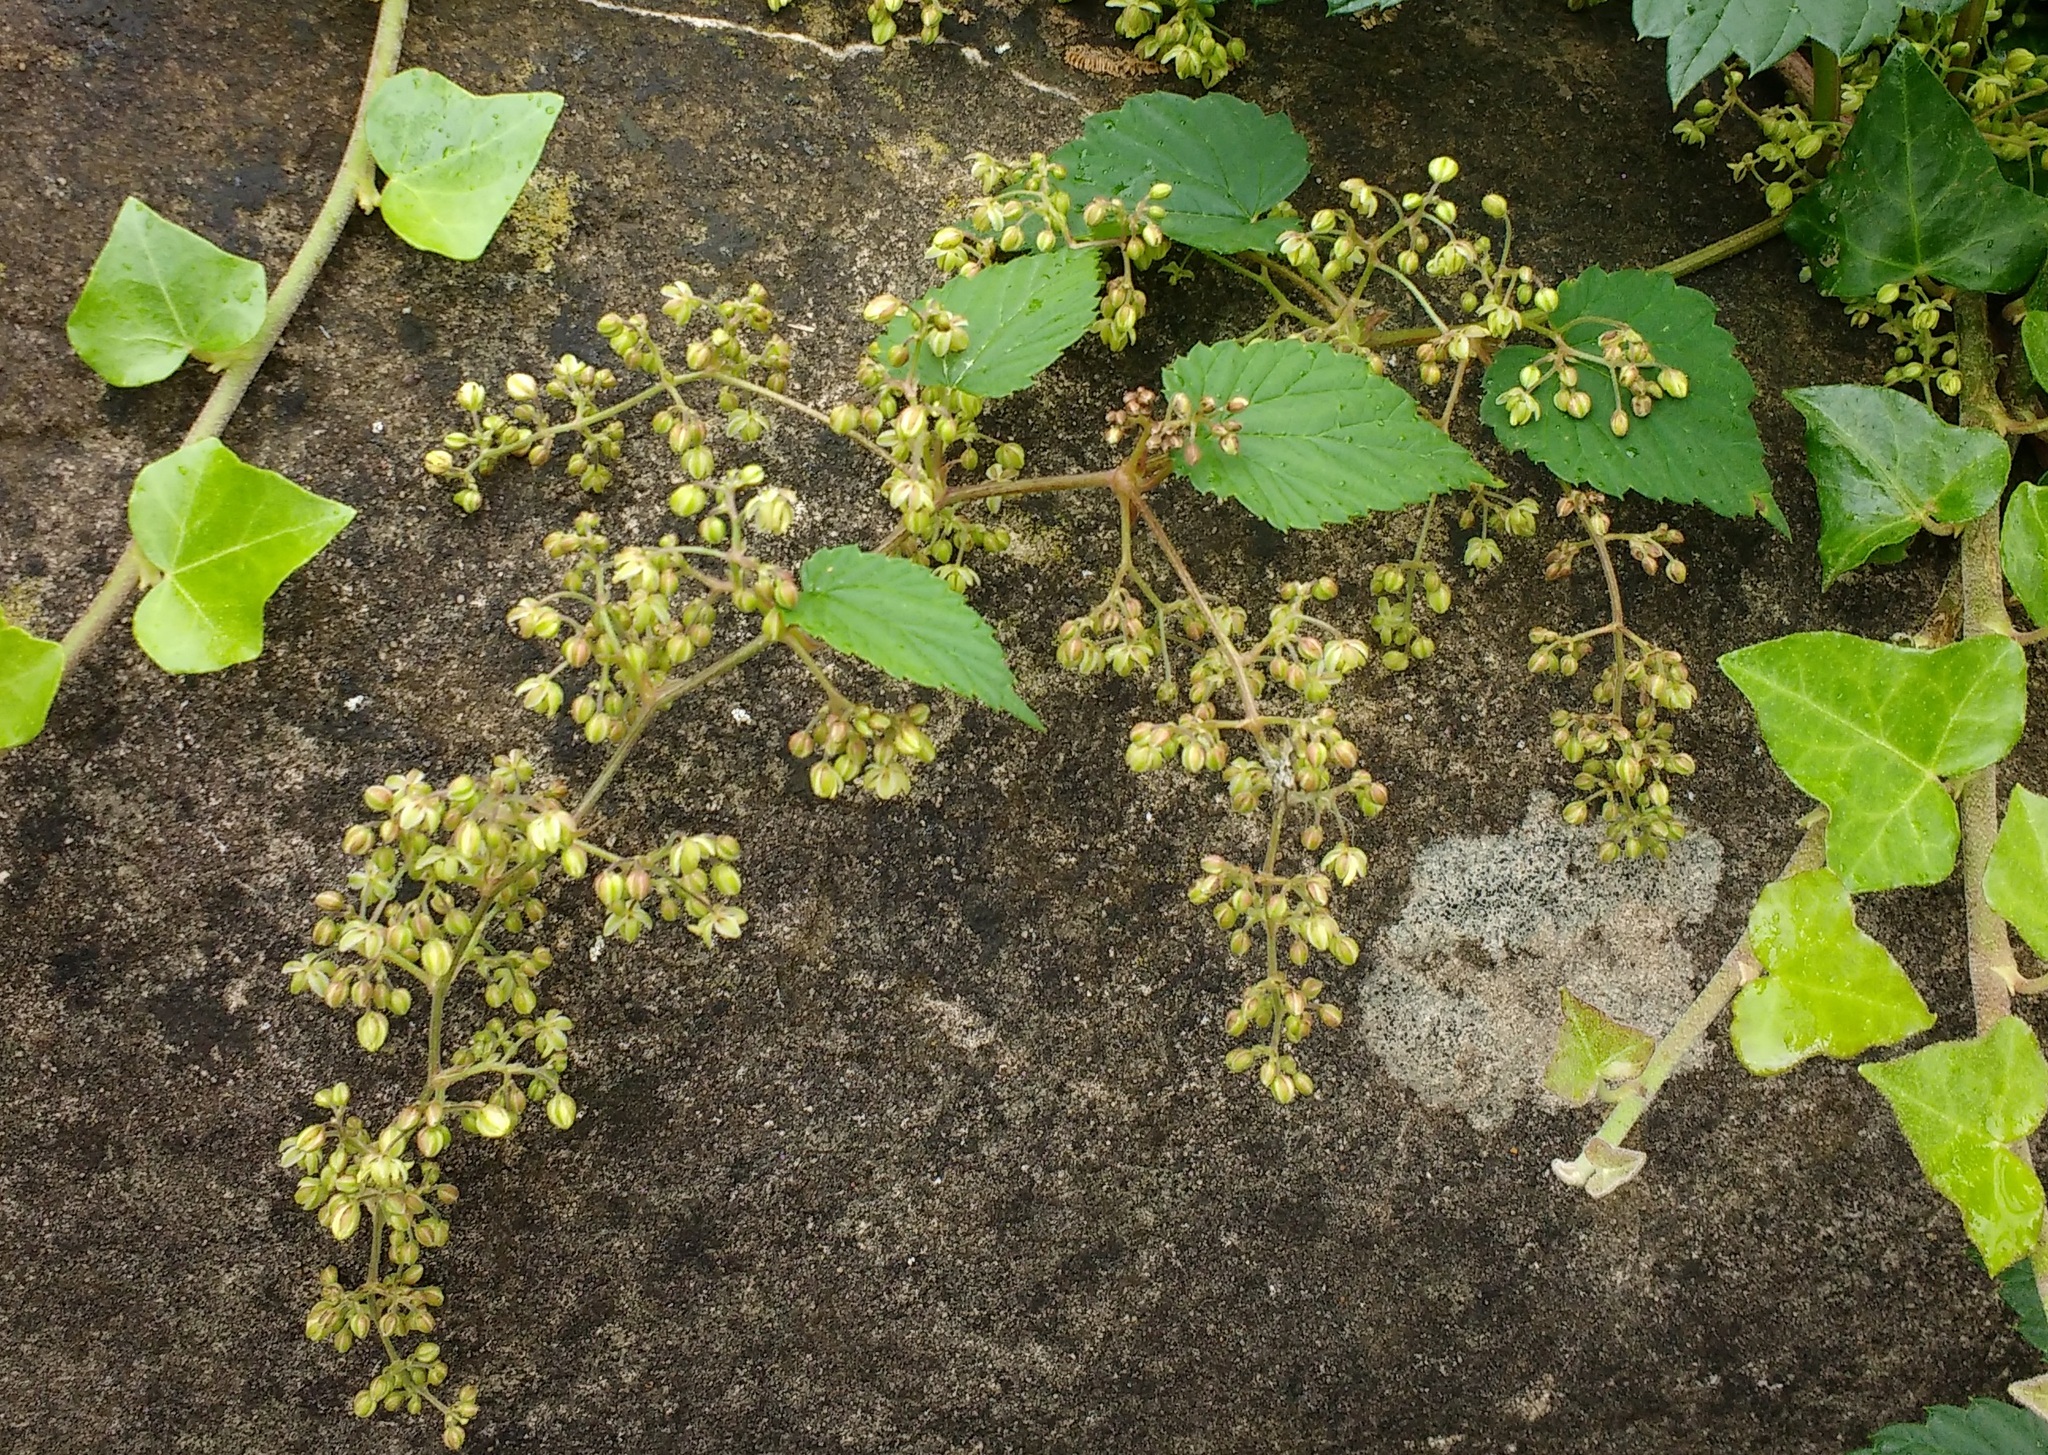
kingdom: Plantae
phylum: Tracheophyta
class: Magnoliopsida
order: Rosales
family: Cannabaceae
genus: Humulus
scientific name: Humulus lupulus
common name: Hop
